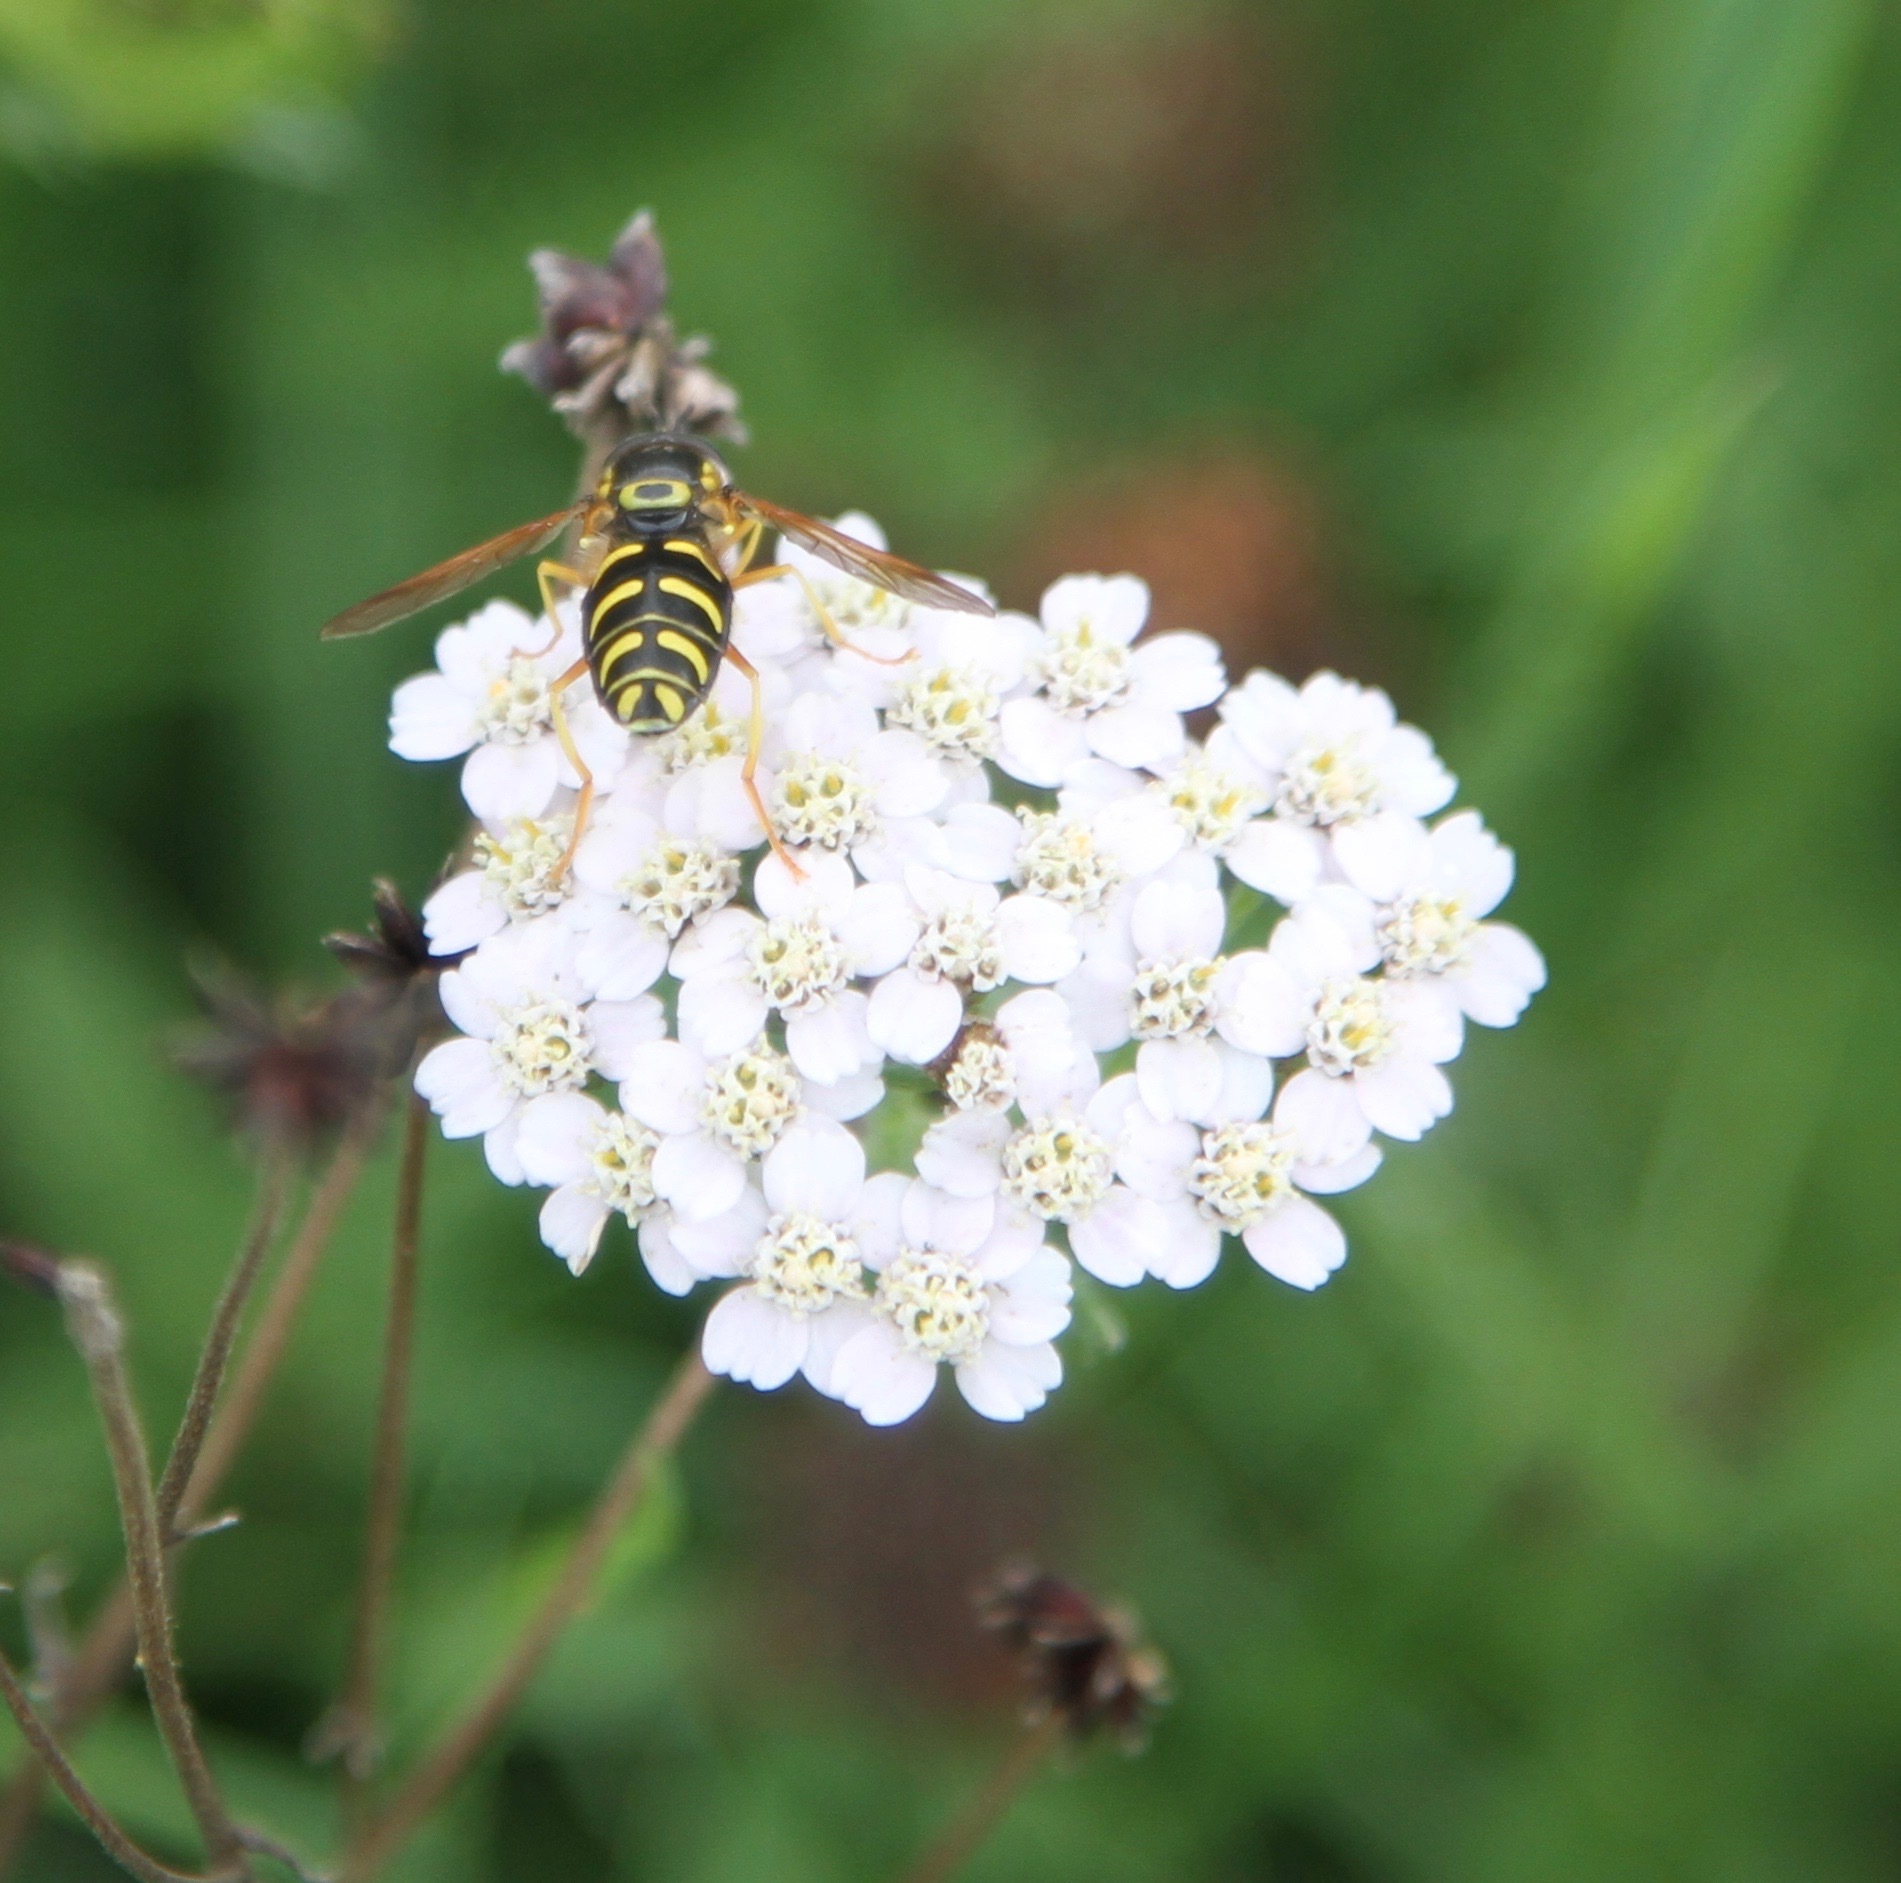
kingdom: Animalia
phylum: Arthropoda
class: Insecta
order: Diptera
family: Syrphidae
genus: Chrysotoxum
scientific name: Chrysotoxum festivum
